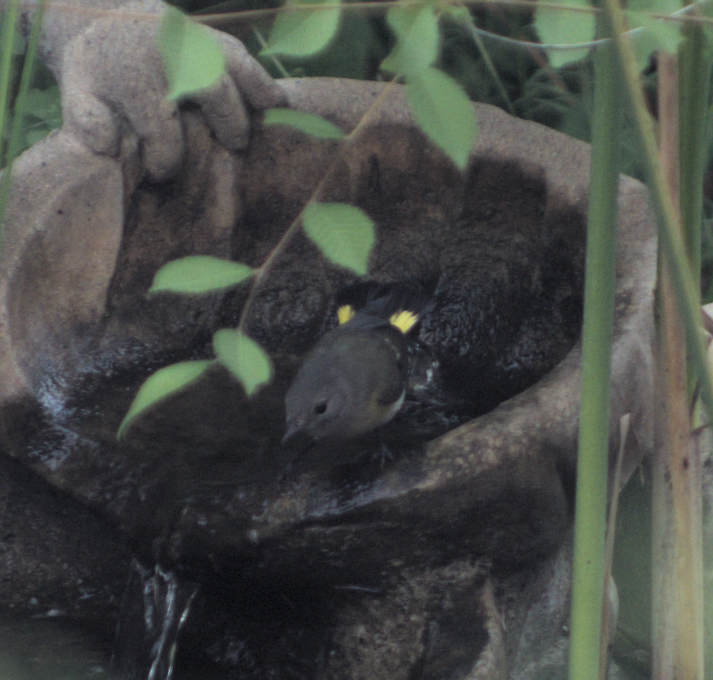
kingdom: Animalia
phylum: Chordata
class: Aves
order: Passeriformes
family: Parulidae
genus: Setophaga
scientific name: Setophaga ruticilla
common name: American redstart
